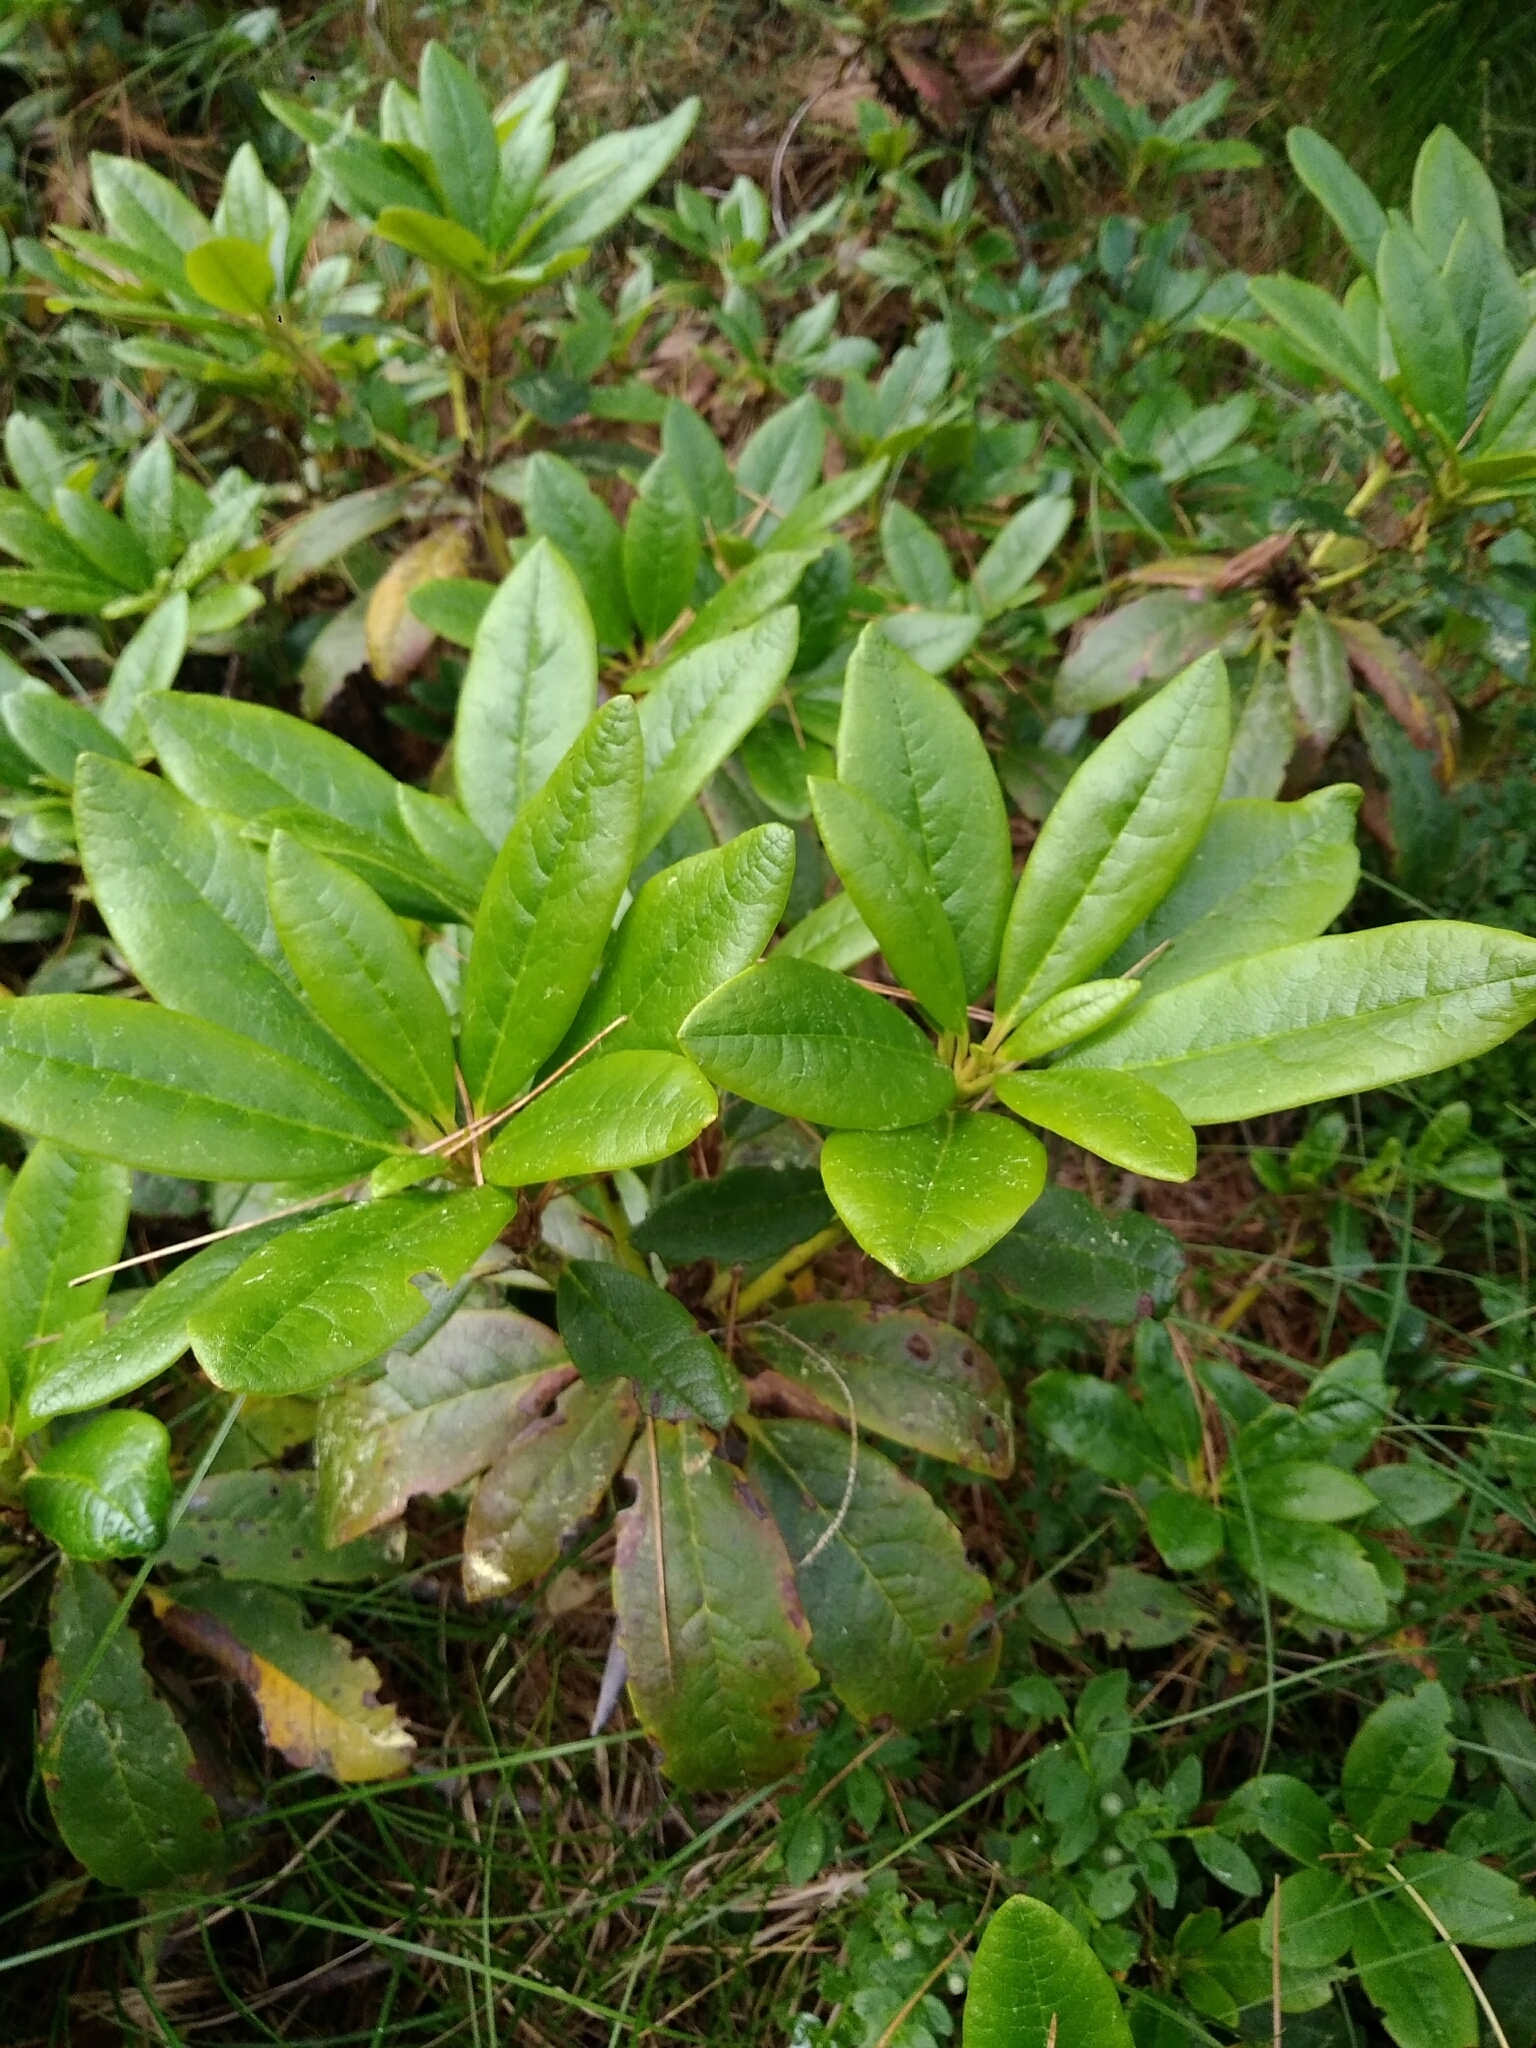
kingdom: Plantae
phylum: Tracheophyta
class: Magnoliopsida
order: Ericales
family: Ericaceae
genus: Rhododendron
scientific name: Rhododendron aureum
